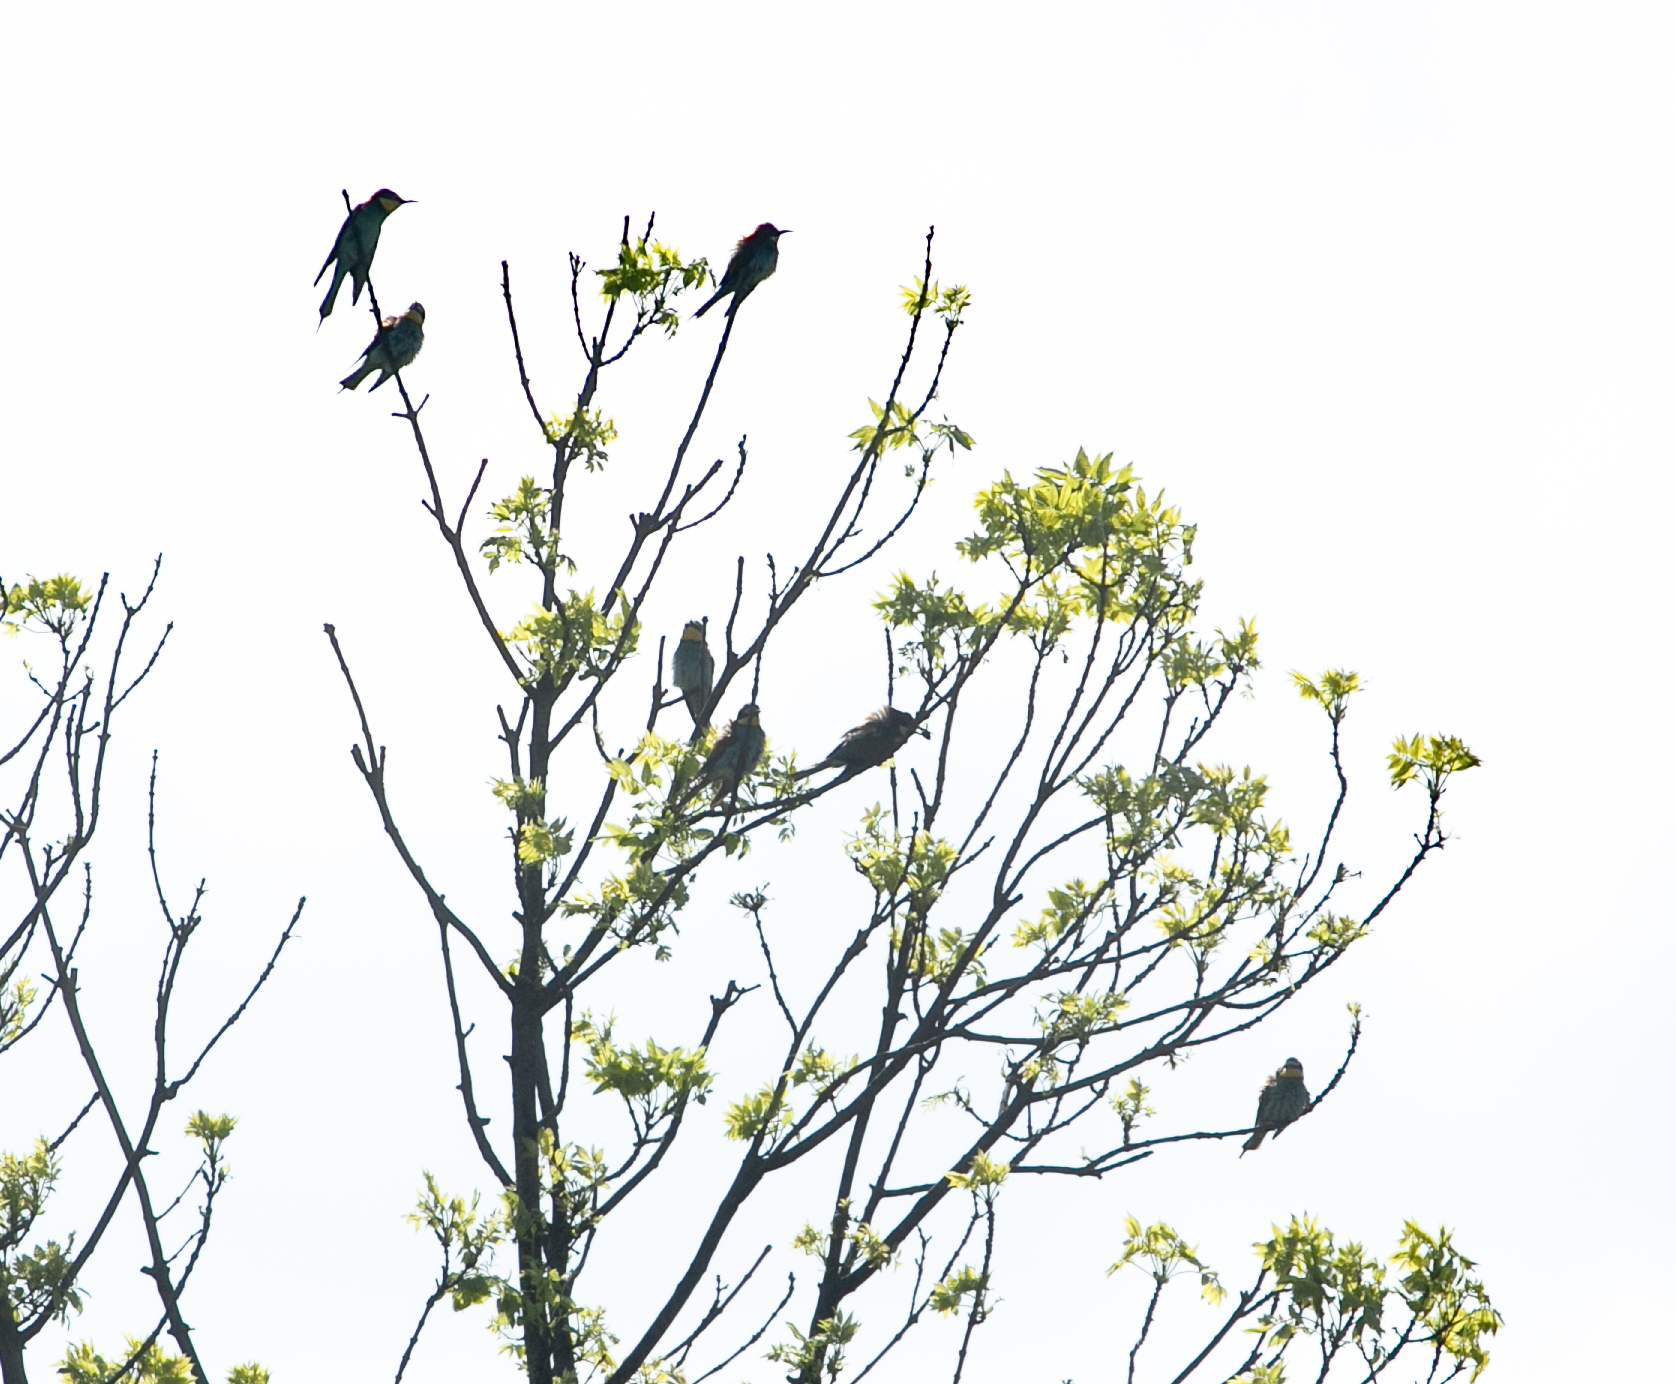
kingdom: Animalia
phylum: Chordata
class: Aves
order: Coraciiformes
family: Meropidae
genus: Merops
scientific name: Merops apiaster
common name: European bee-eater
